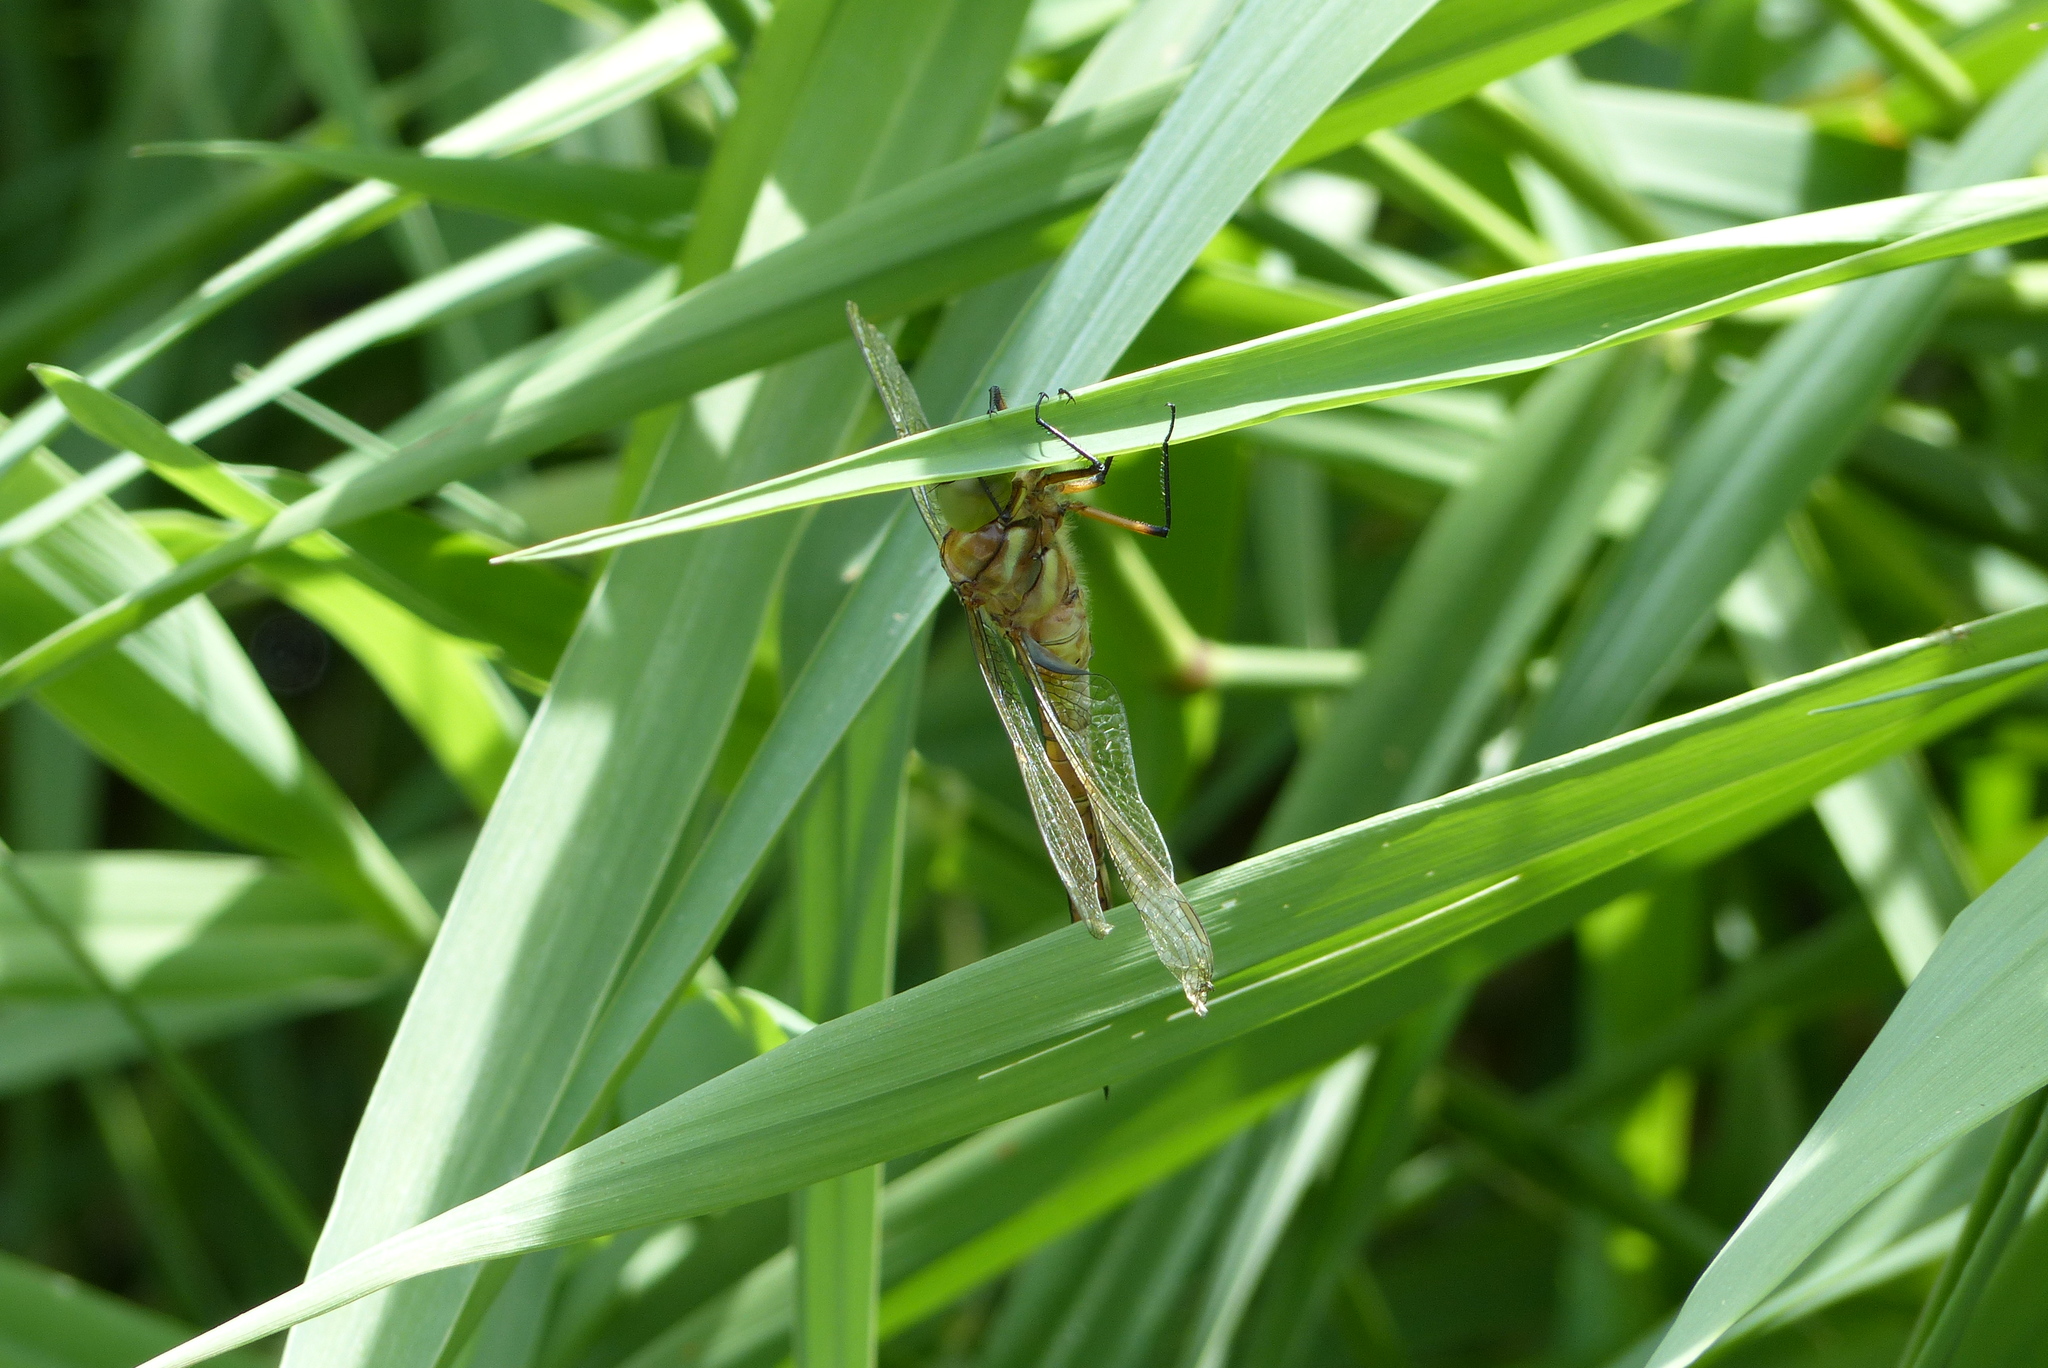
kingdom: Animalia
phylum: Arthropoda
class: Insecta
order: Odonata
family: Aeshnidae
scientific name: Aeshnidae
